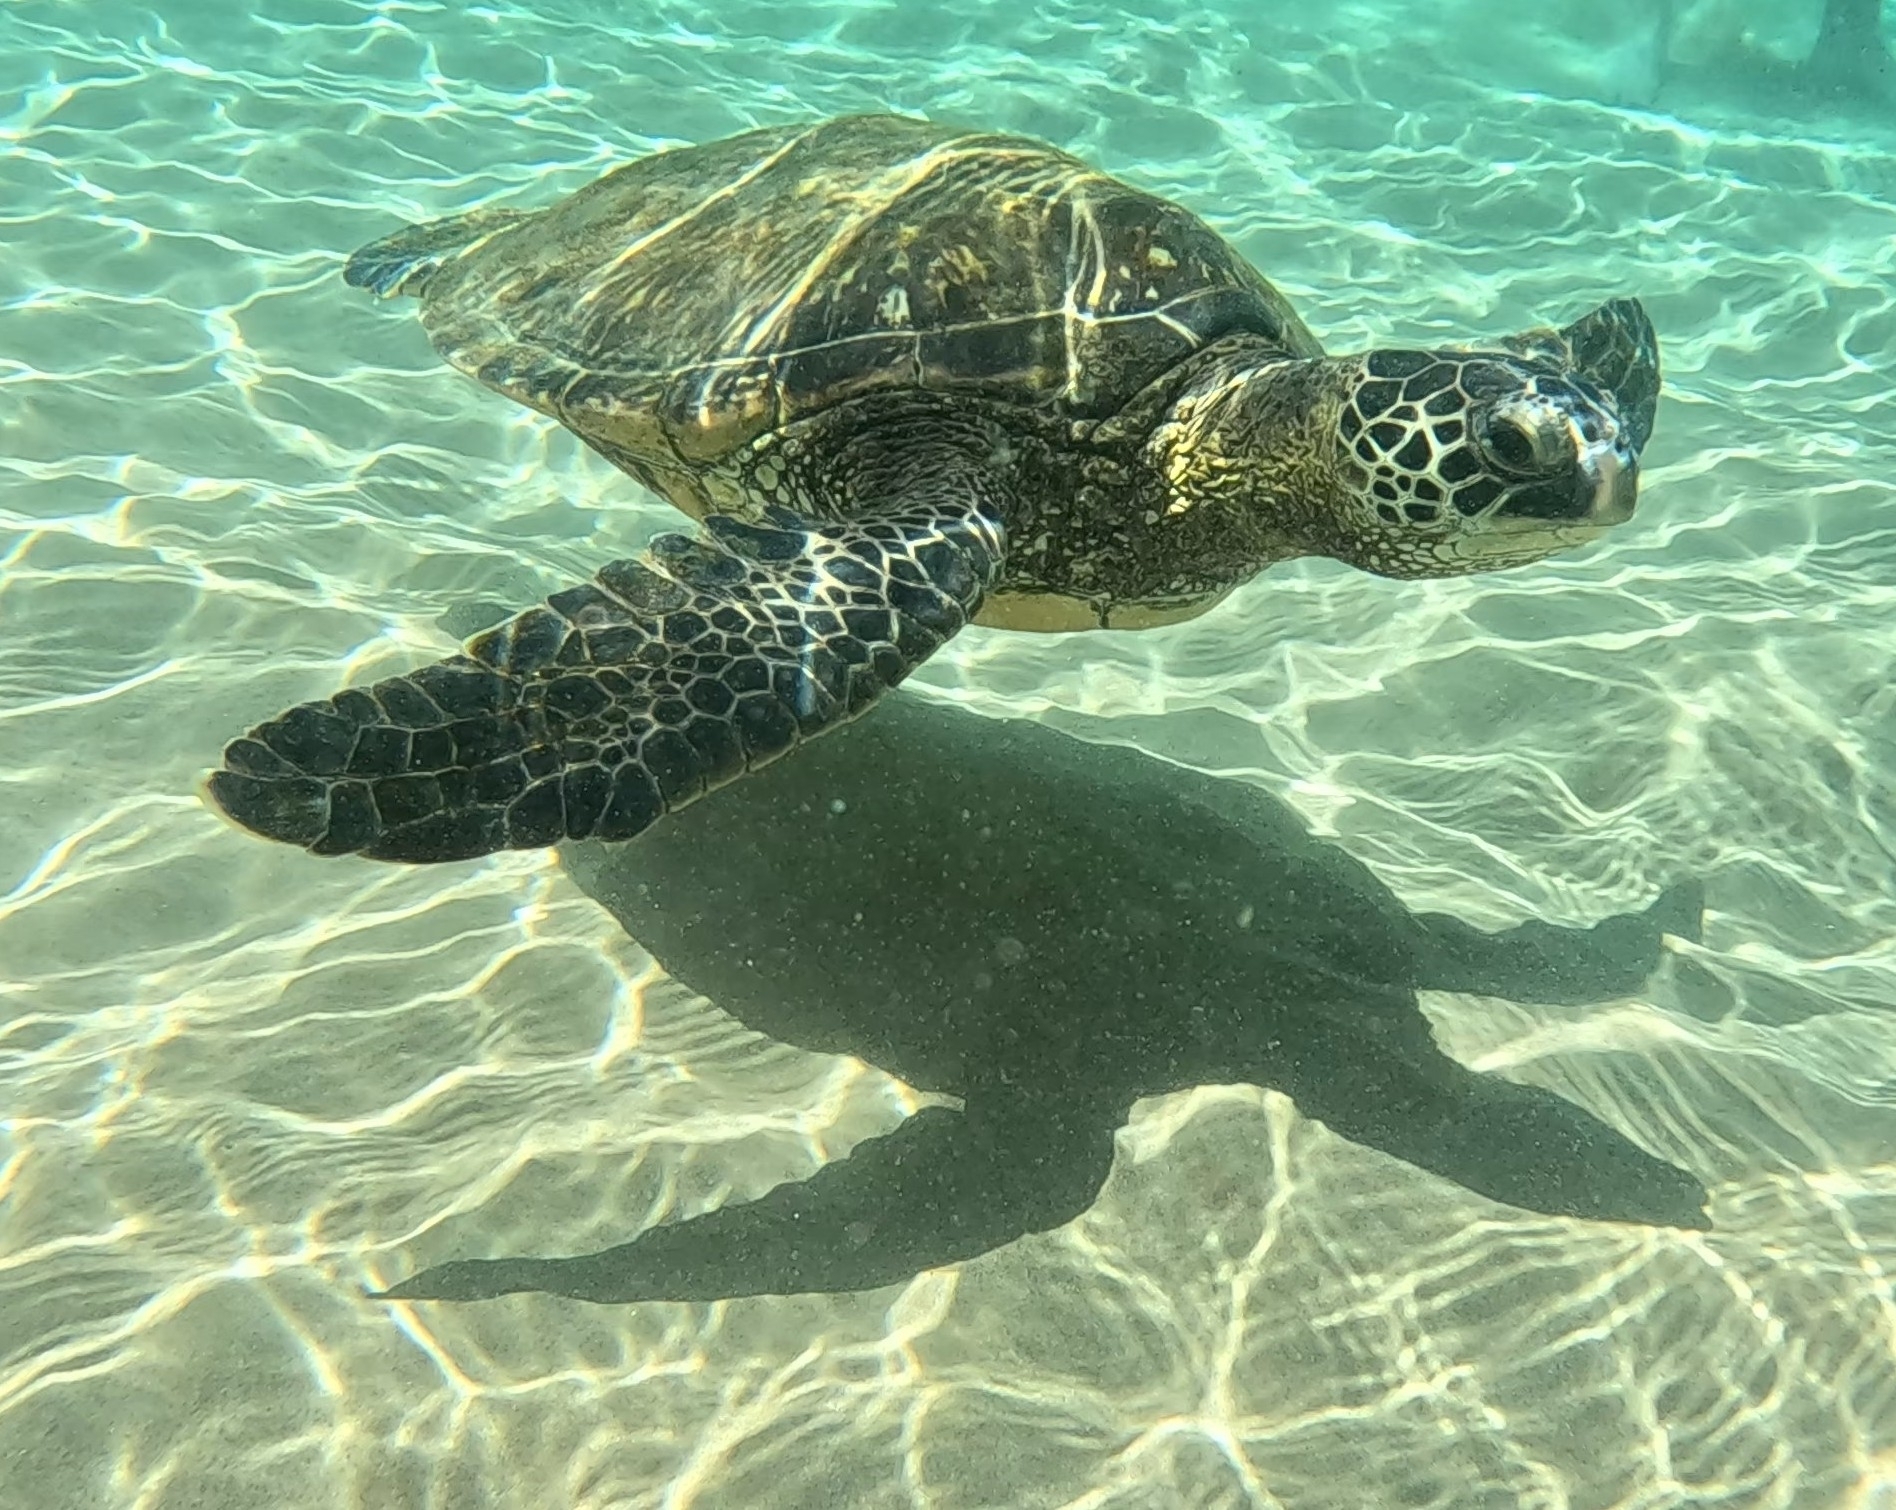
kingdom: Animalia
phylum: Chordata
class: Testudines
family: Cheloniidae
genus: Chelonia
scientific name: Chelonia mydas
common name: Green turtle
